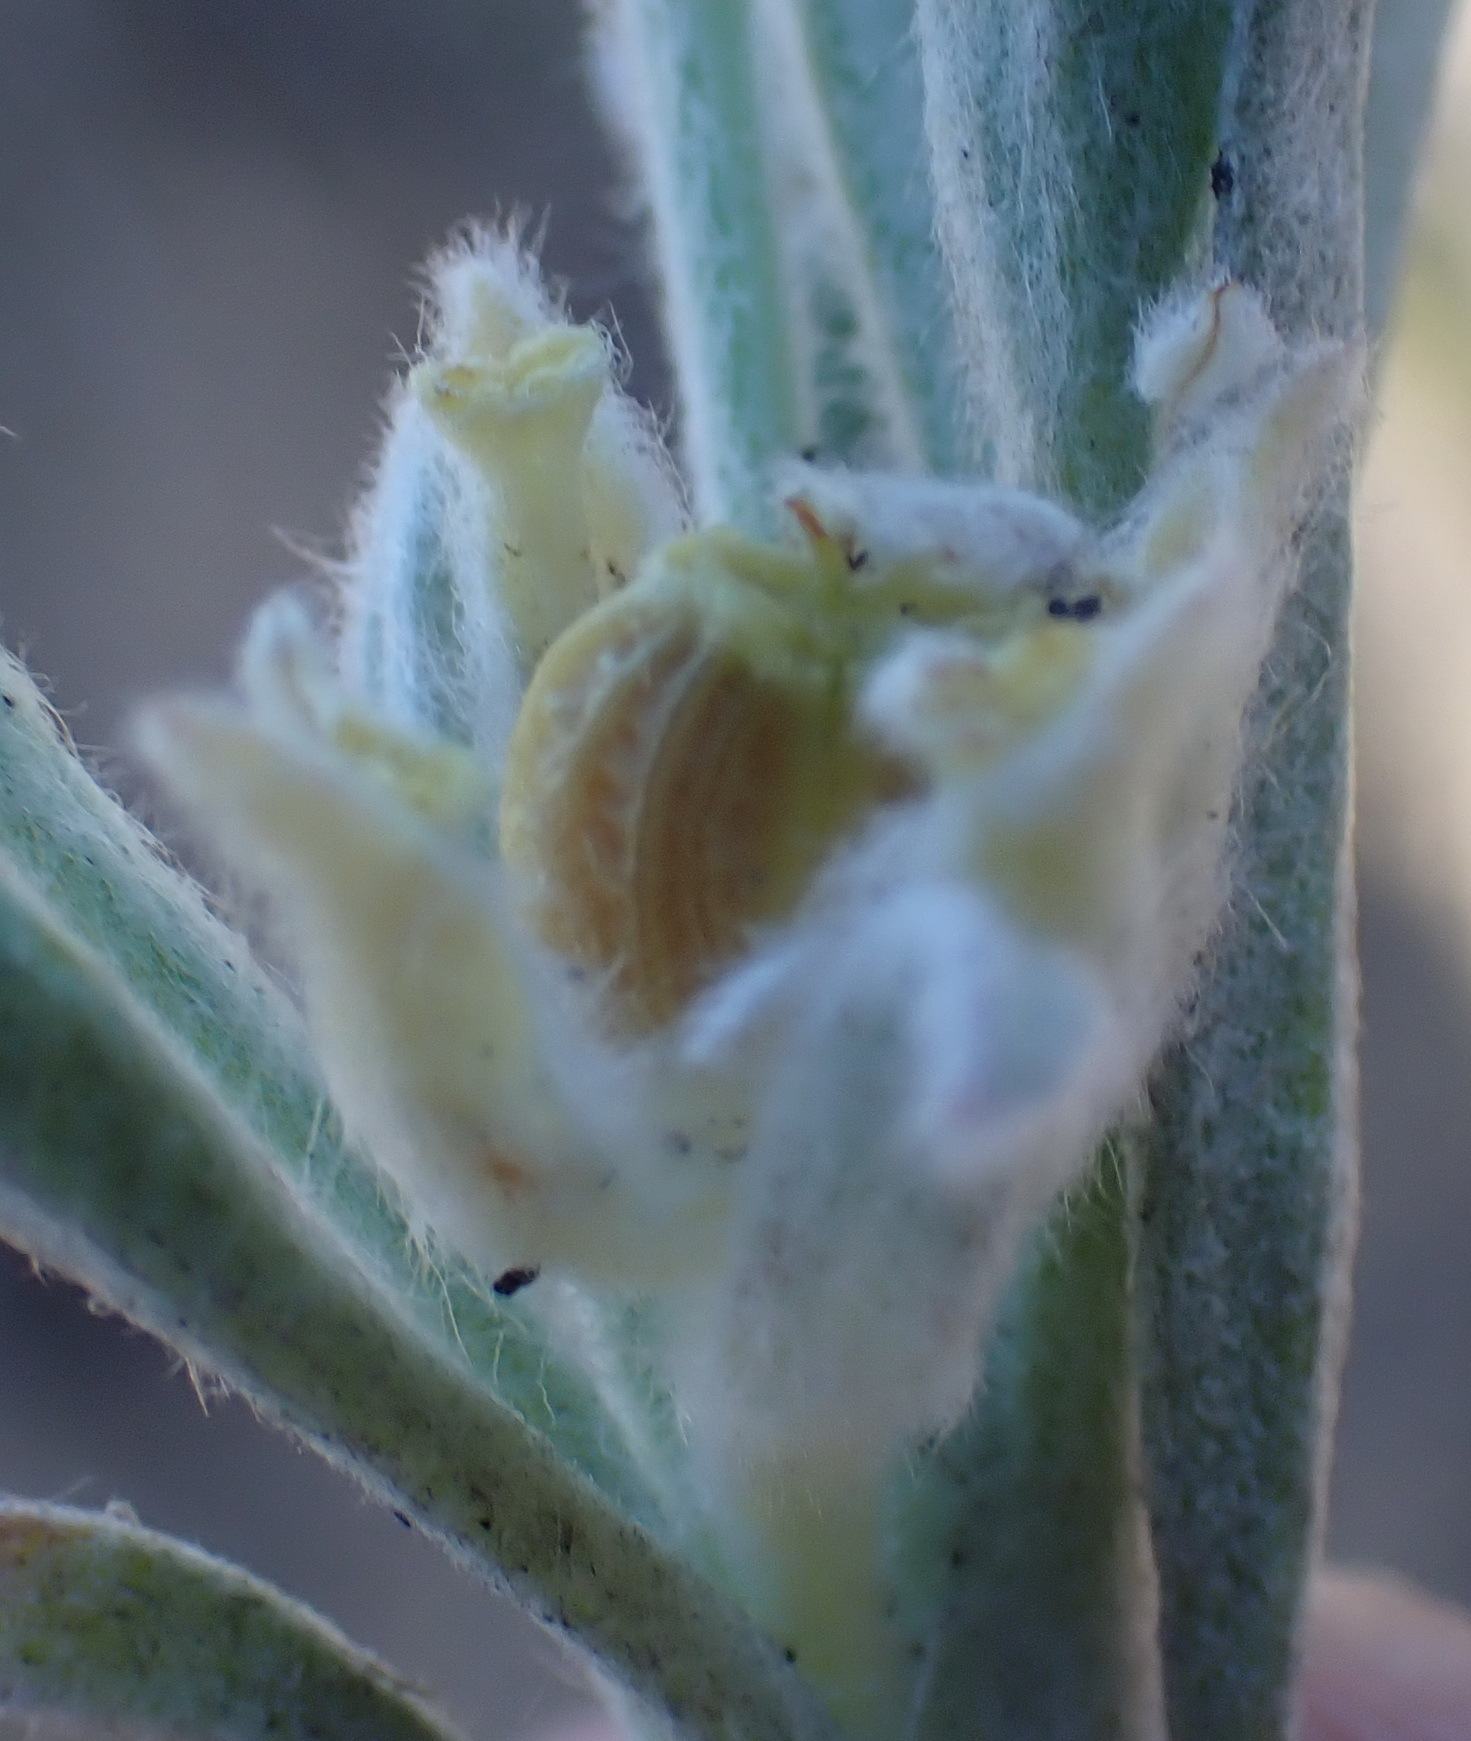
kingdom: Plantae
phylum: Tracheophyta
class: Magnoliopsida
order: Apiales
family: Apiaceae
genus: Centella
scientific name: Centella tridentata
